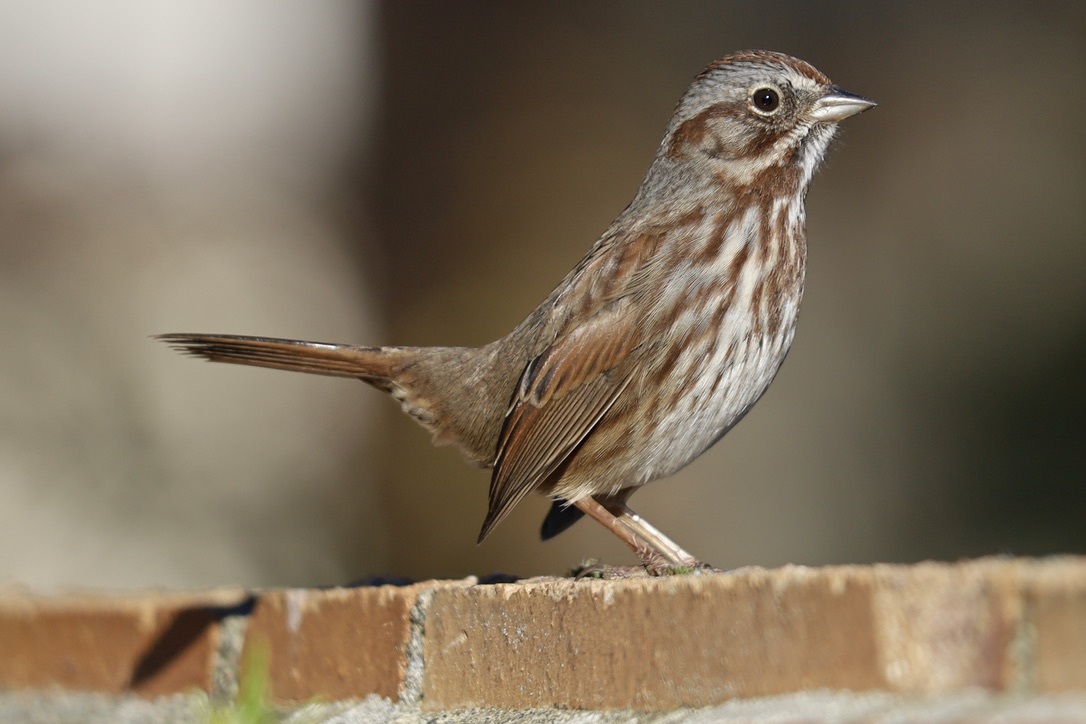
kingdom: Animalia
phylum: Chordata
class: Aves
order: Passeriformes
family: Passerellidae
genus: Melospiza
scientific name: Melospiza melodia
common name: Song sparrow
